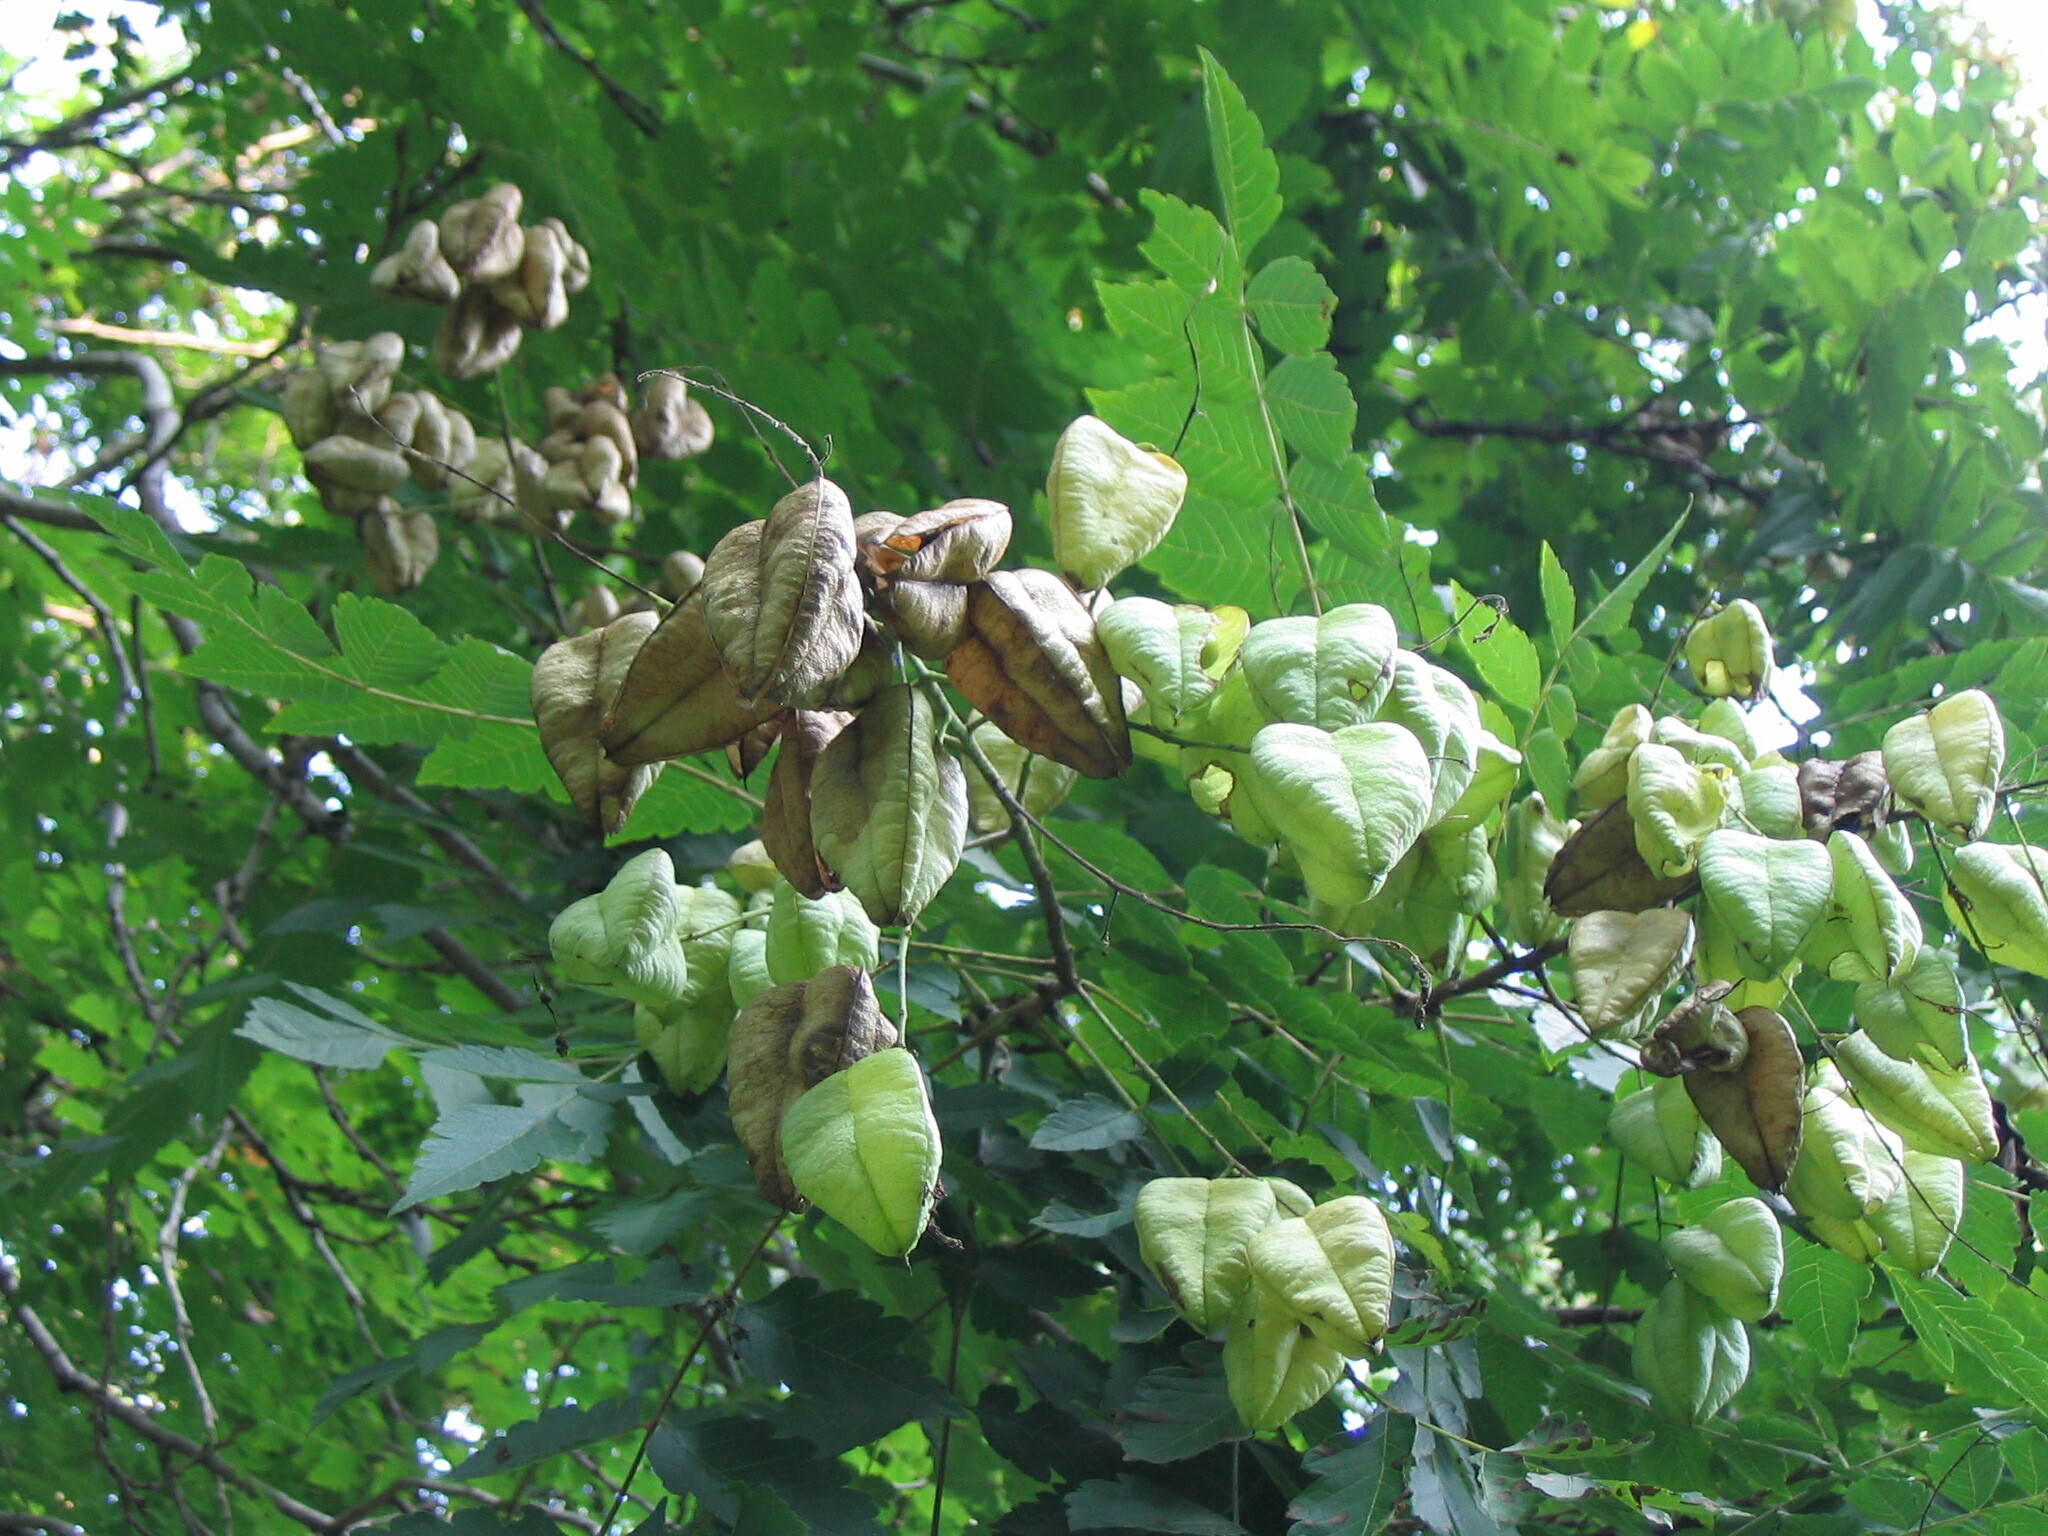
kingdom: Plantae
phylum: Tracheophyta
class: Magnoliopsida
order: Sapindales
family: Sapindaceae
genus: Koelreuteria
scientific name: Koelreuteria paniculata
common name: Pride-of-india
